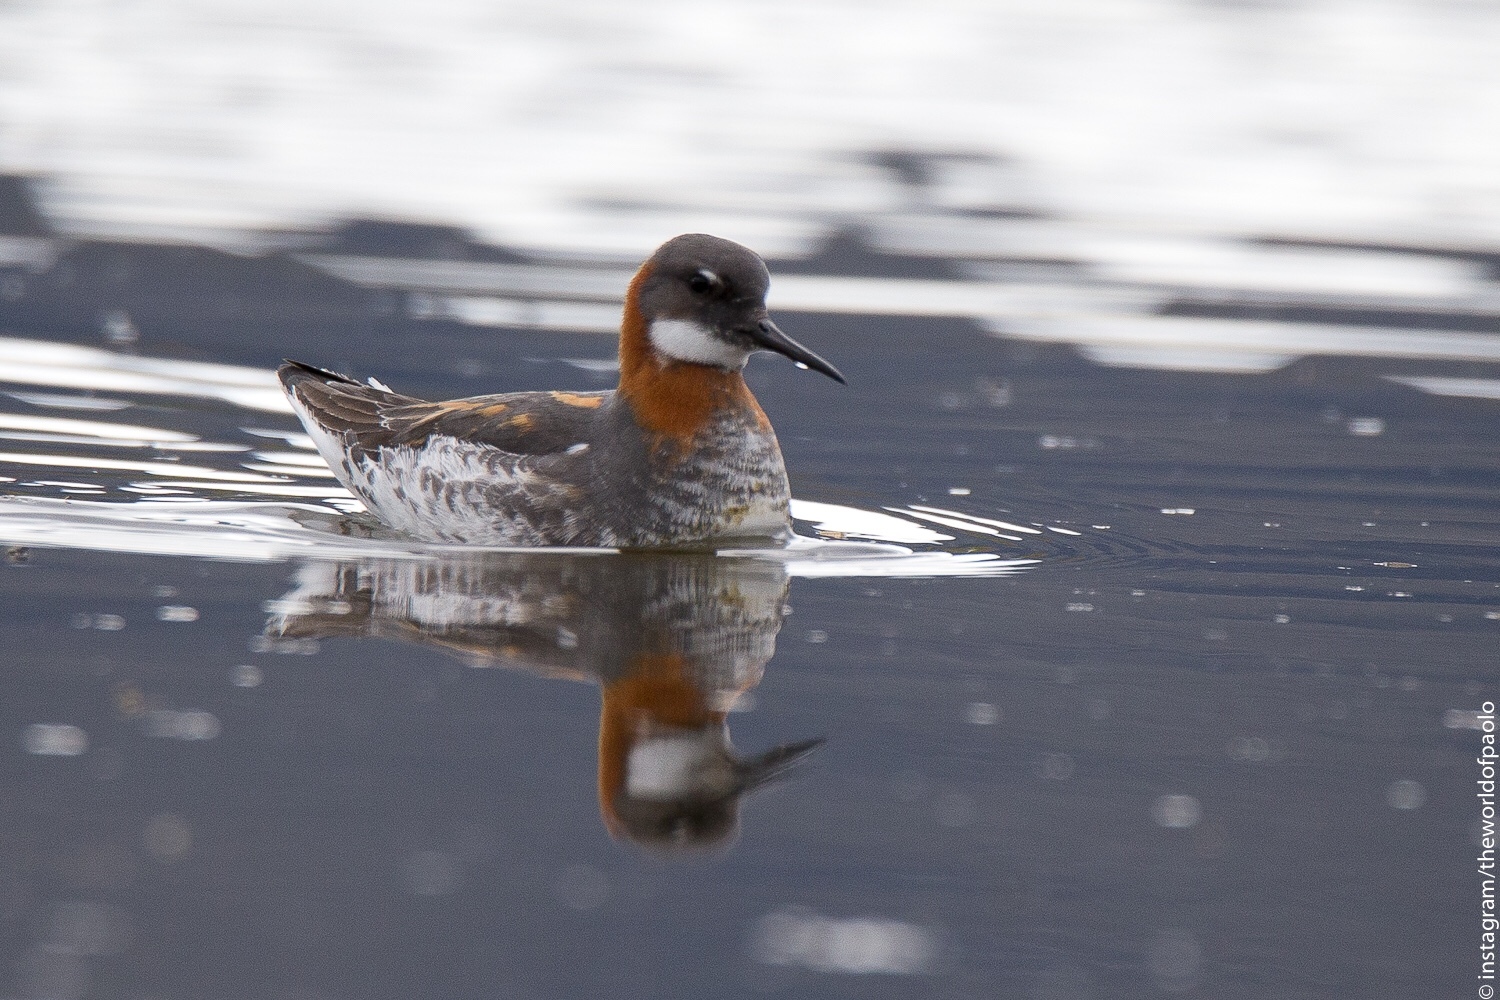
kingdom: Animalia
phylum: Chordata
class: Aves
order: Charadriiformes
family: Scolopacidae
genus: Phalaropus
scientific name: Phalaropus lobatus
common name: Red-necked phalarope
